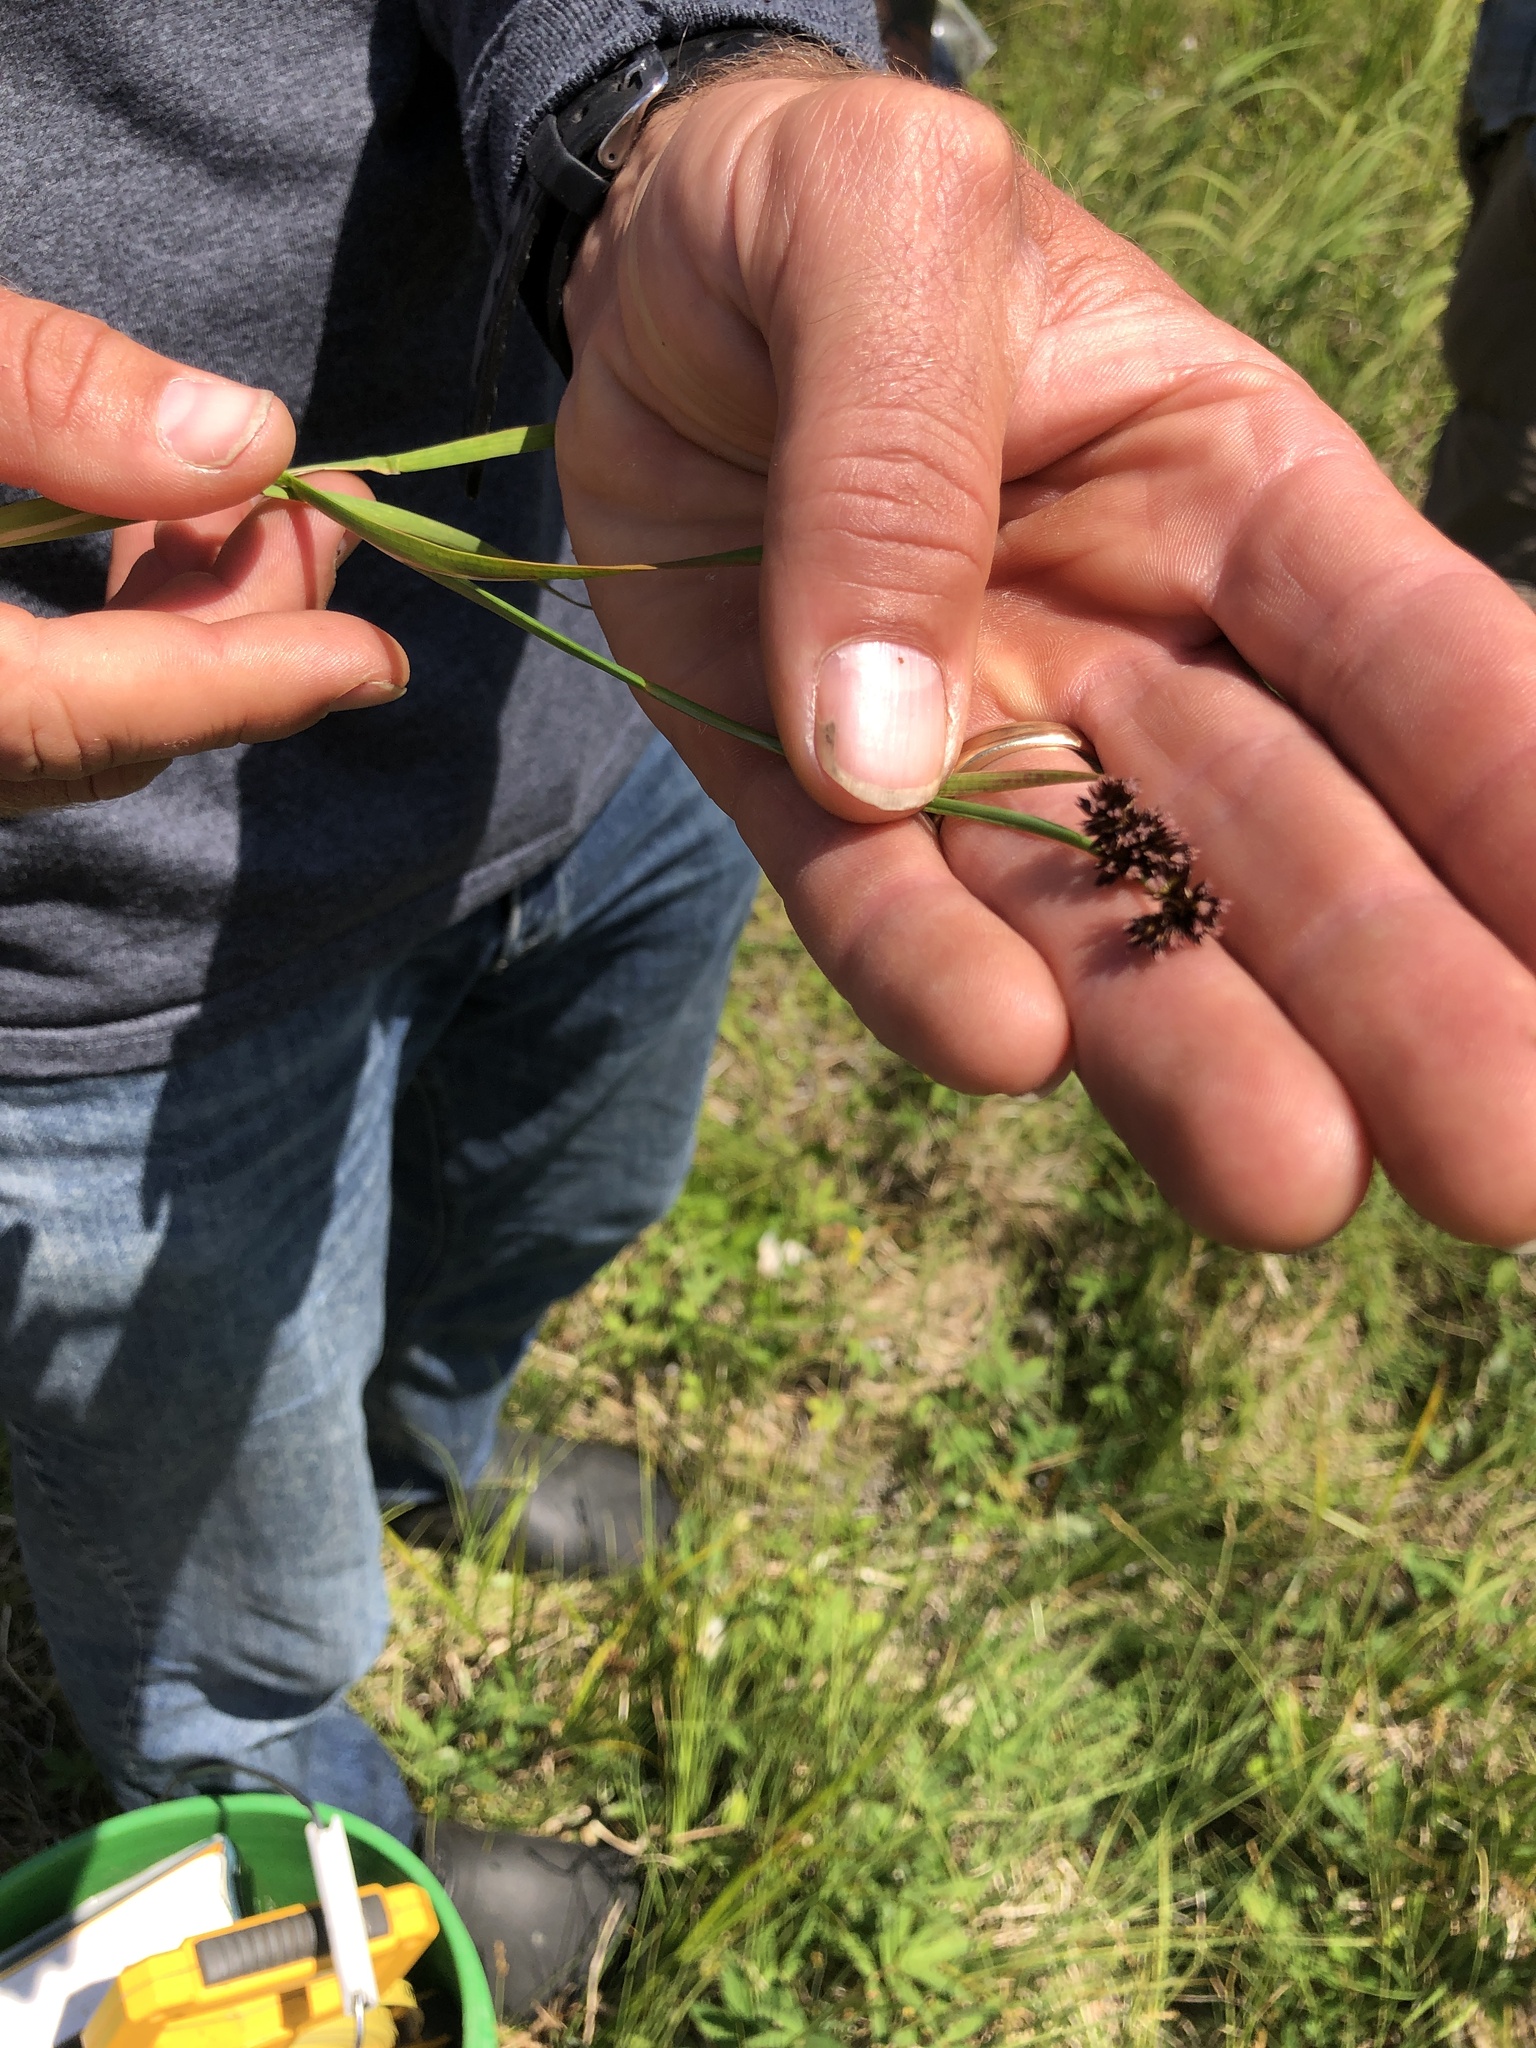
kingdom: Plantae
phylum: Tracheophyta
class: Liliopsida
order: Poales
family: Juncaceae
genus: Juncus
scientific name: Juncus ensifolius
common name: Sword-leaved rush
